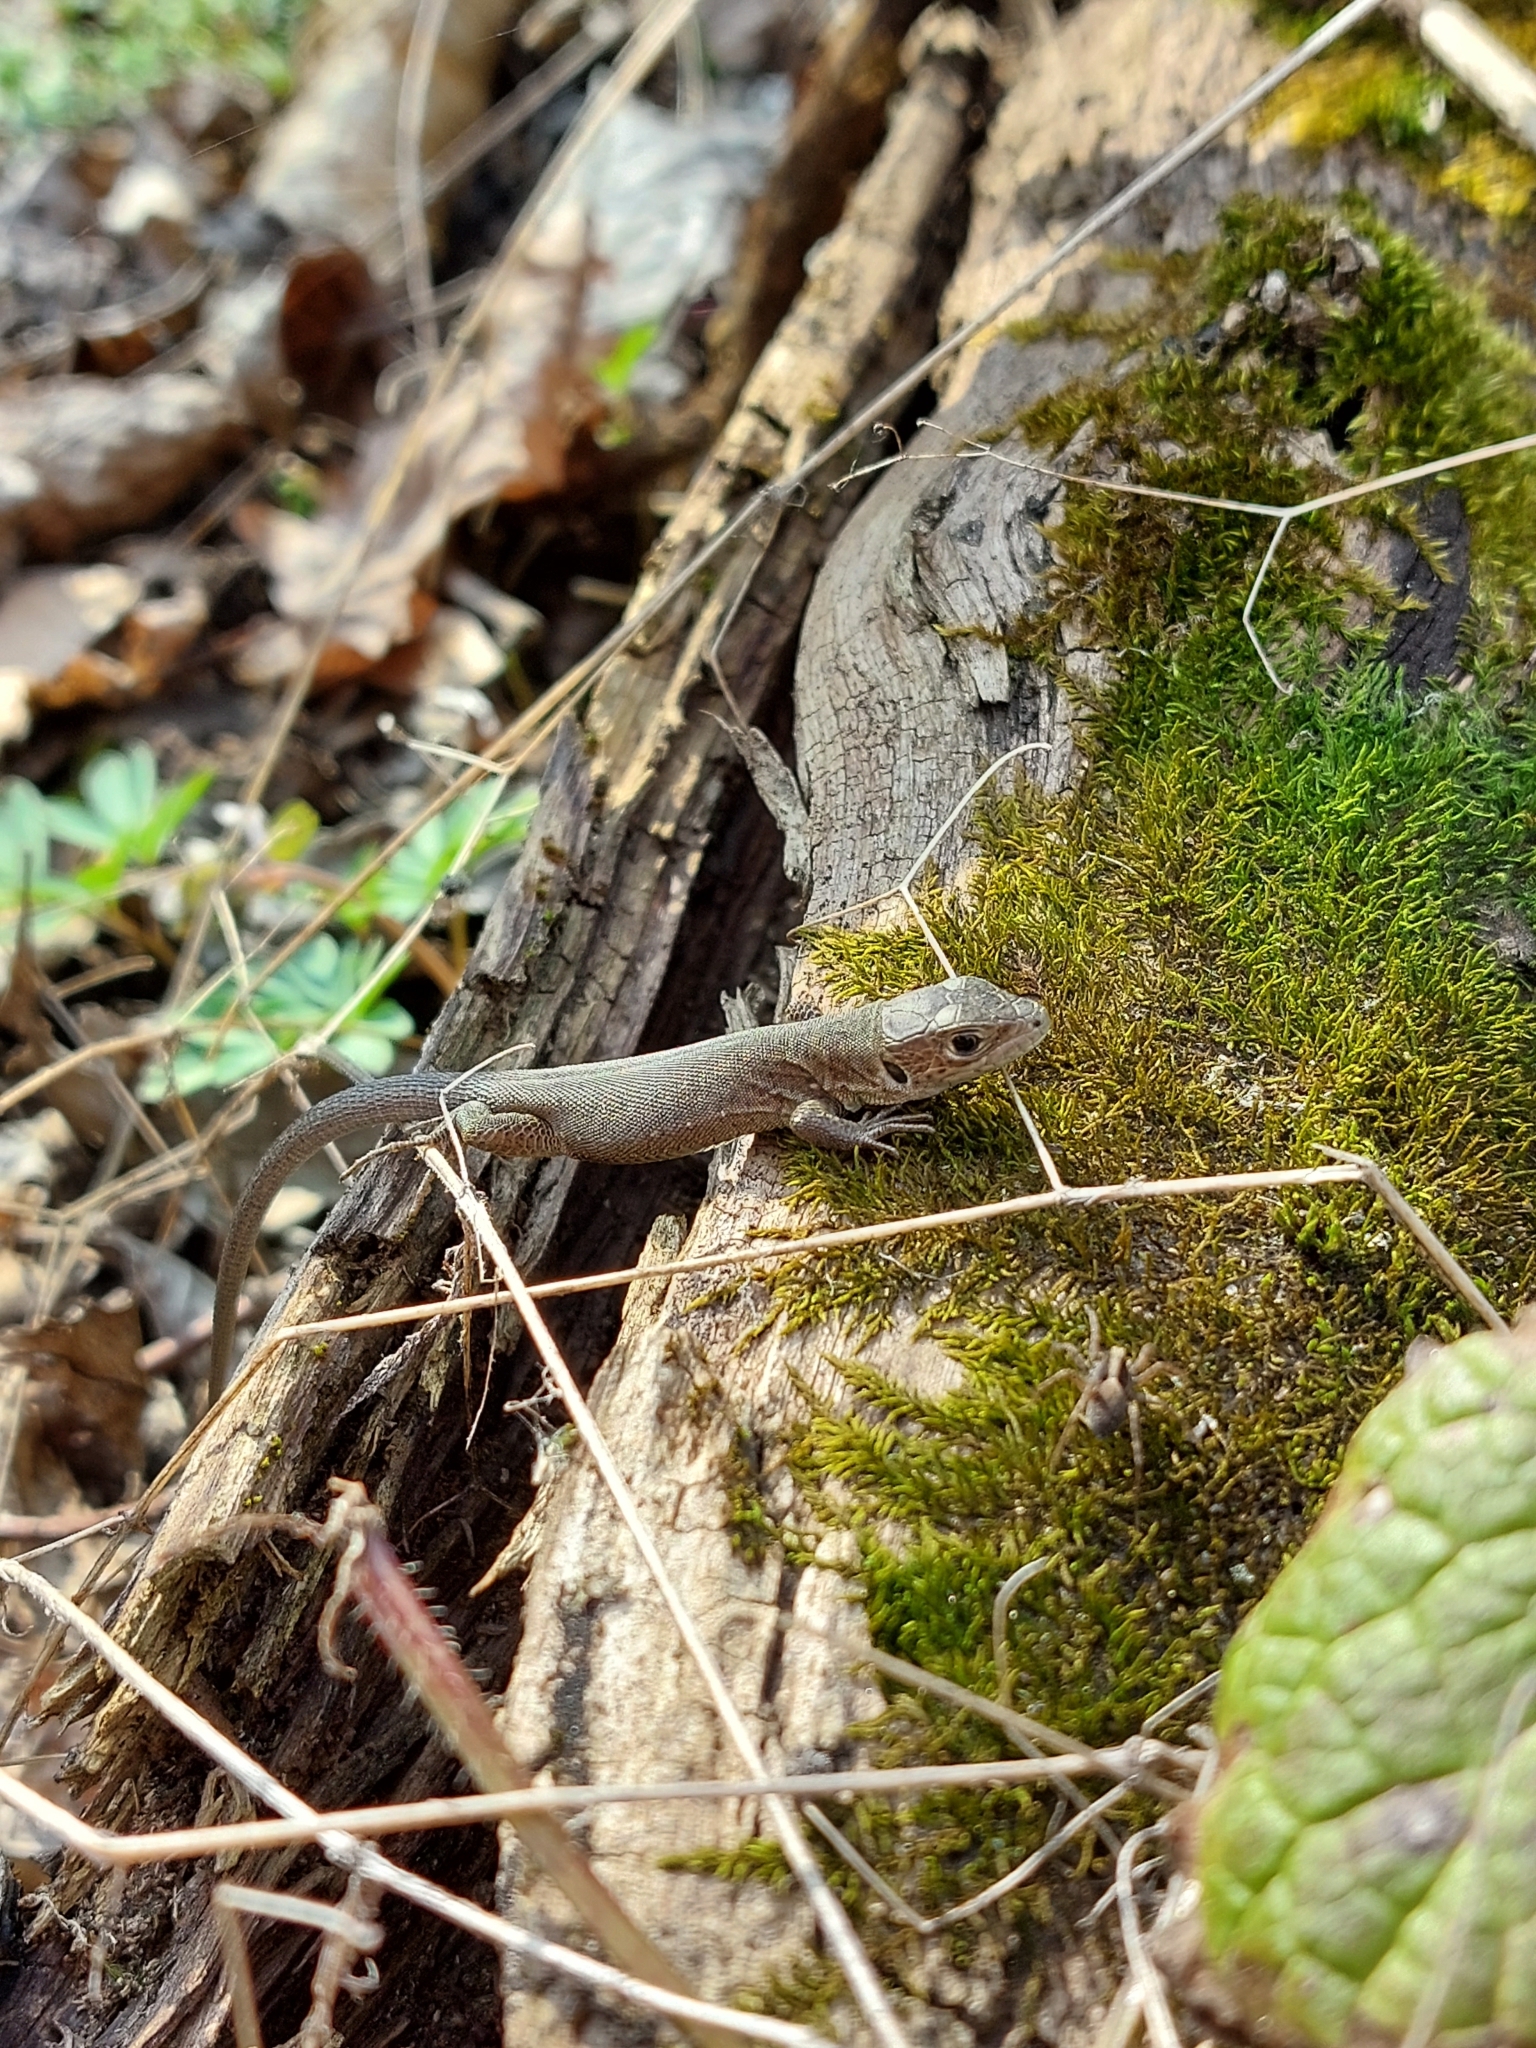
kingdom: Animalia
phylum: Chordata
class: Squamata
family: Lacertidae
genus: Lacerta
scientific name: Lacerta viridis
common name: European green lizard
